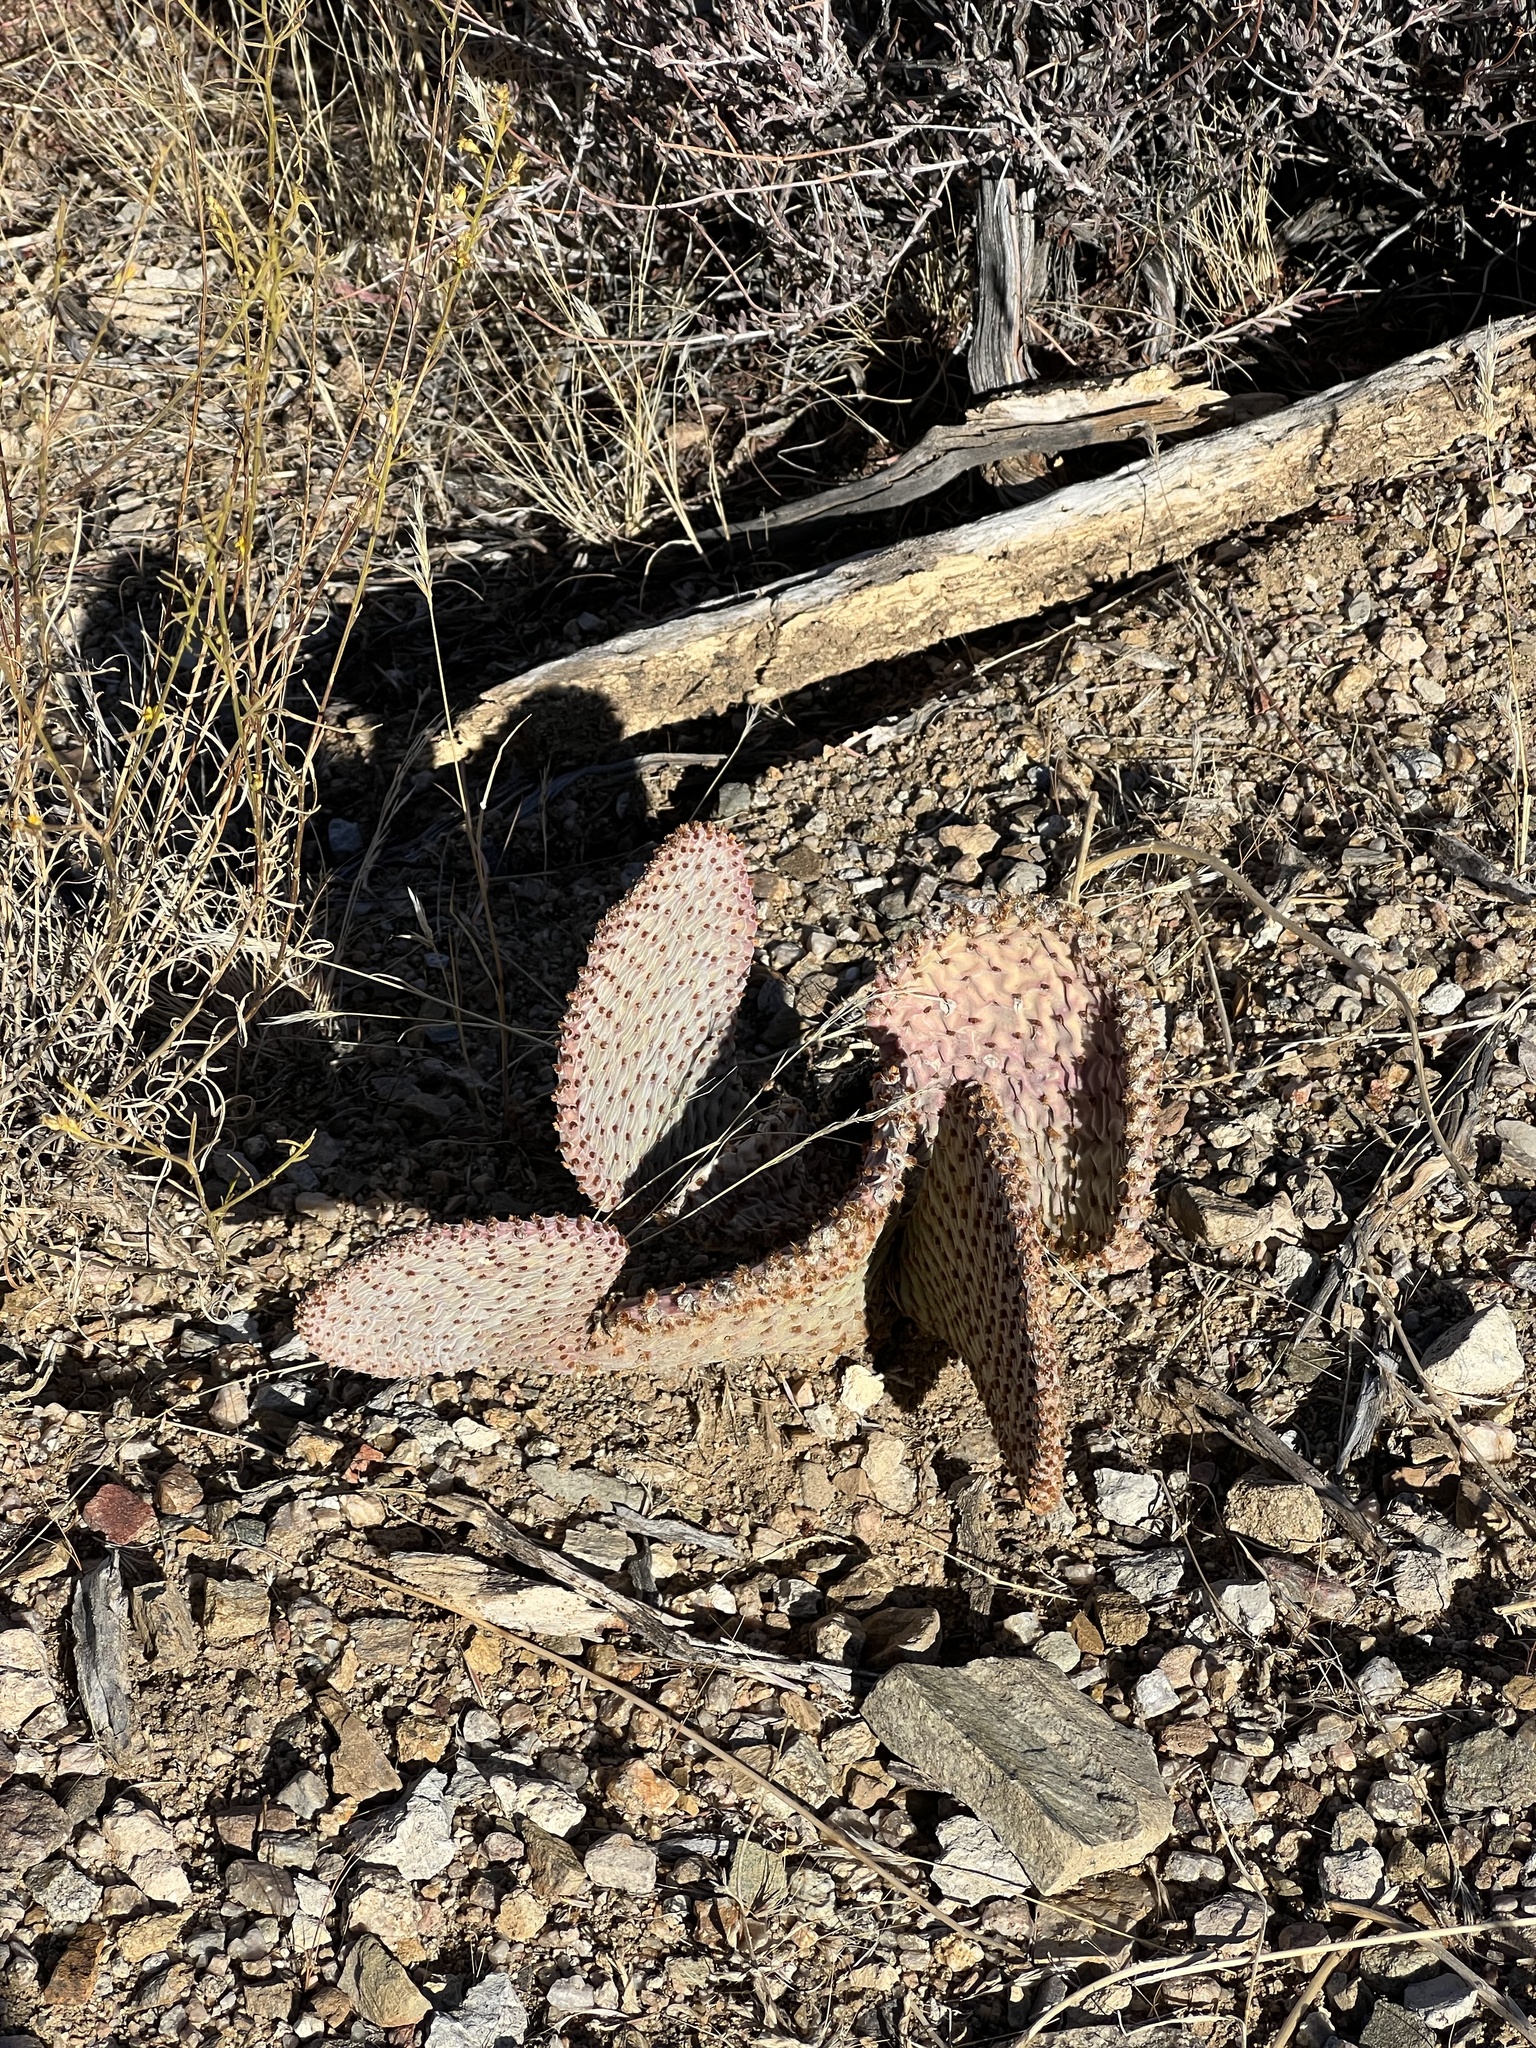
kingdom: Plantae
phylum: Tracheophyta
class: Magnoliopsida
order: Caryophyllales
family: Cactaceae
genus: Opuntia
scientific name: Opuntia basilaris
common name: Beavertail prickly-pear
